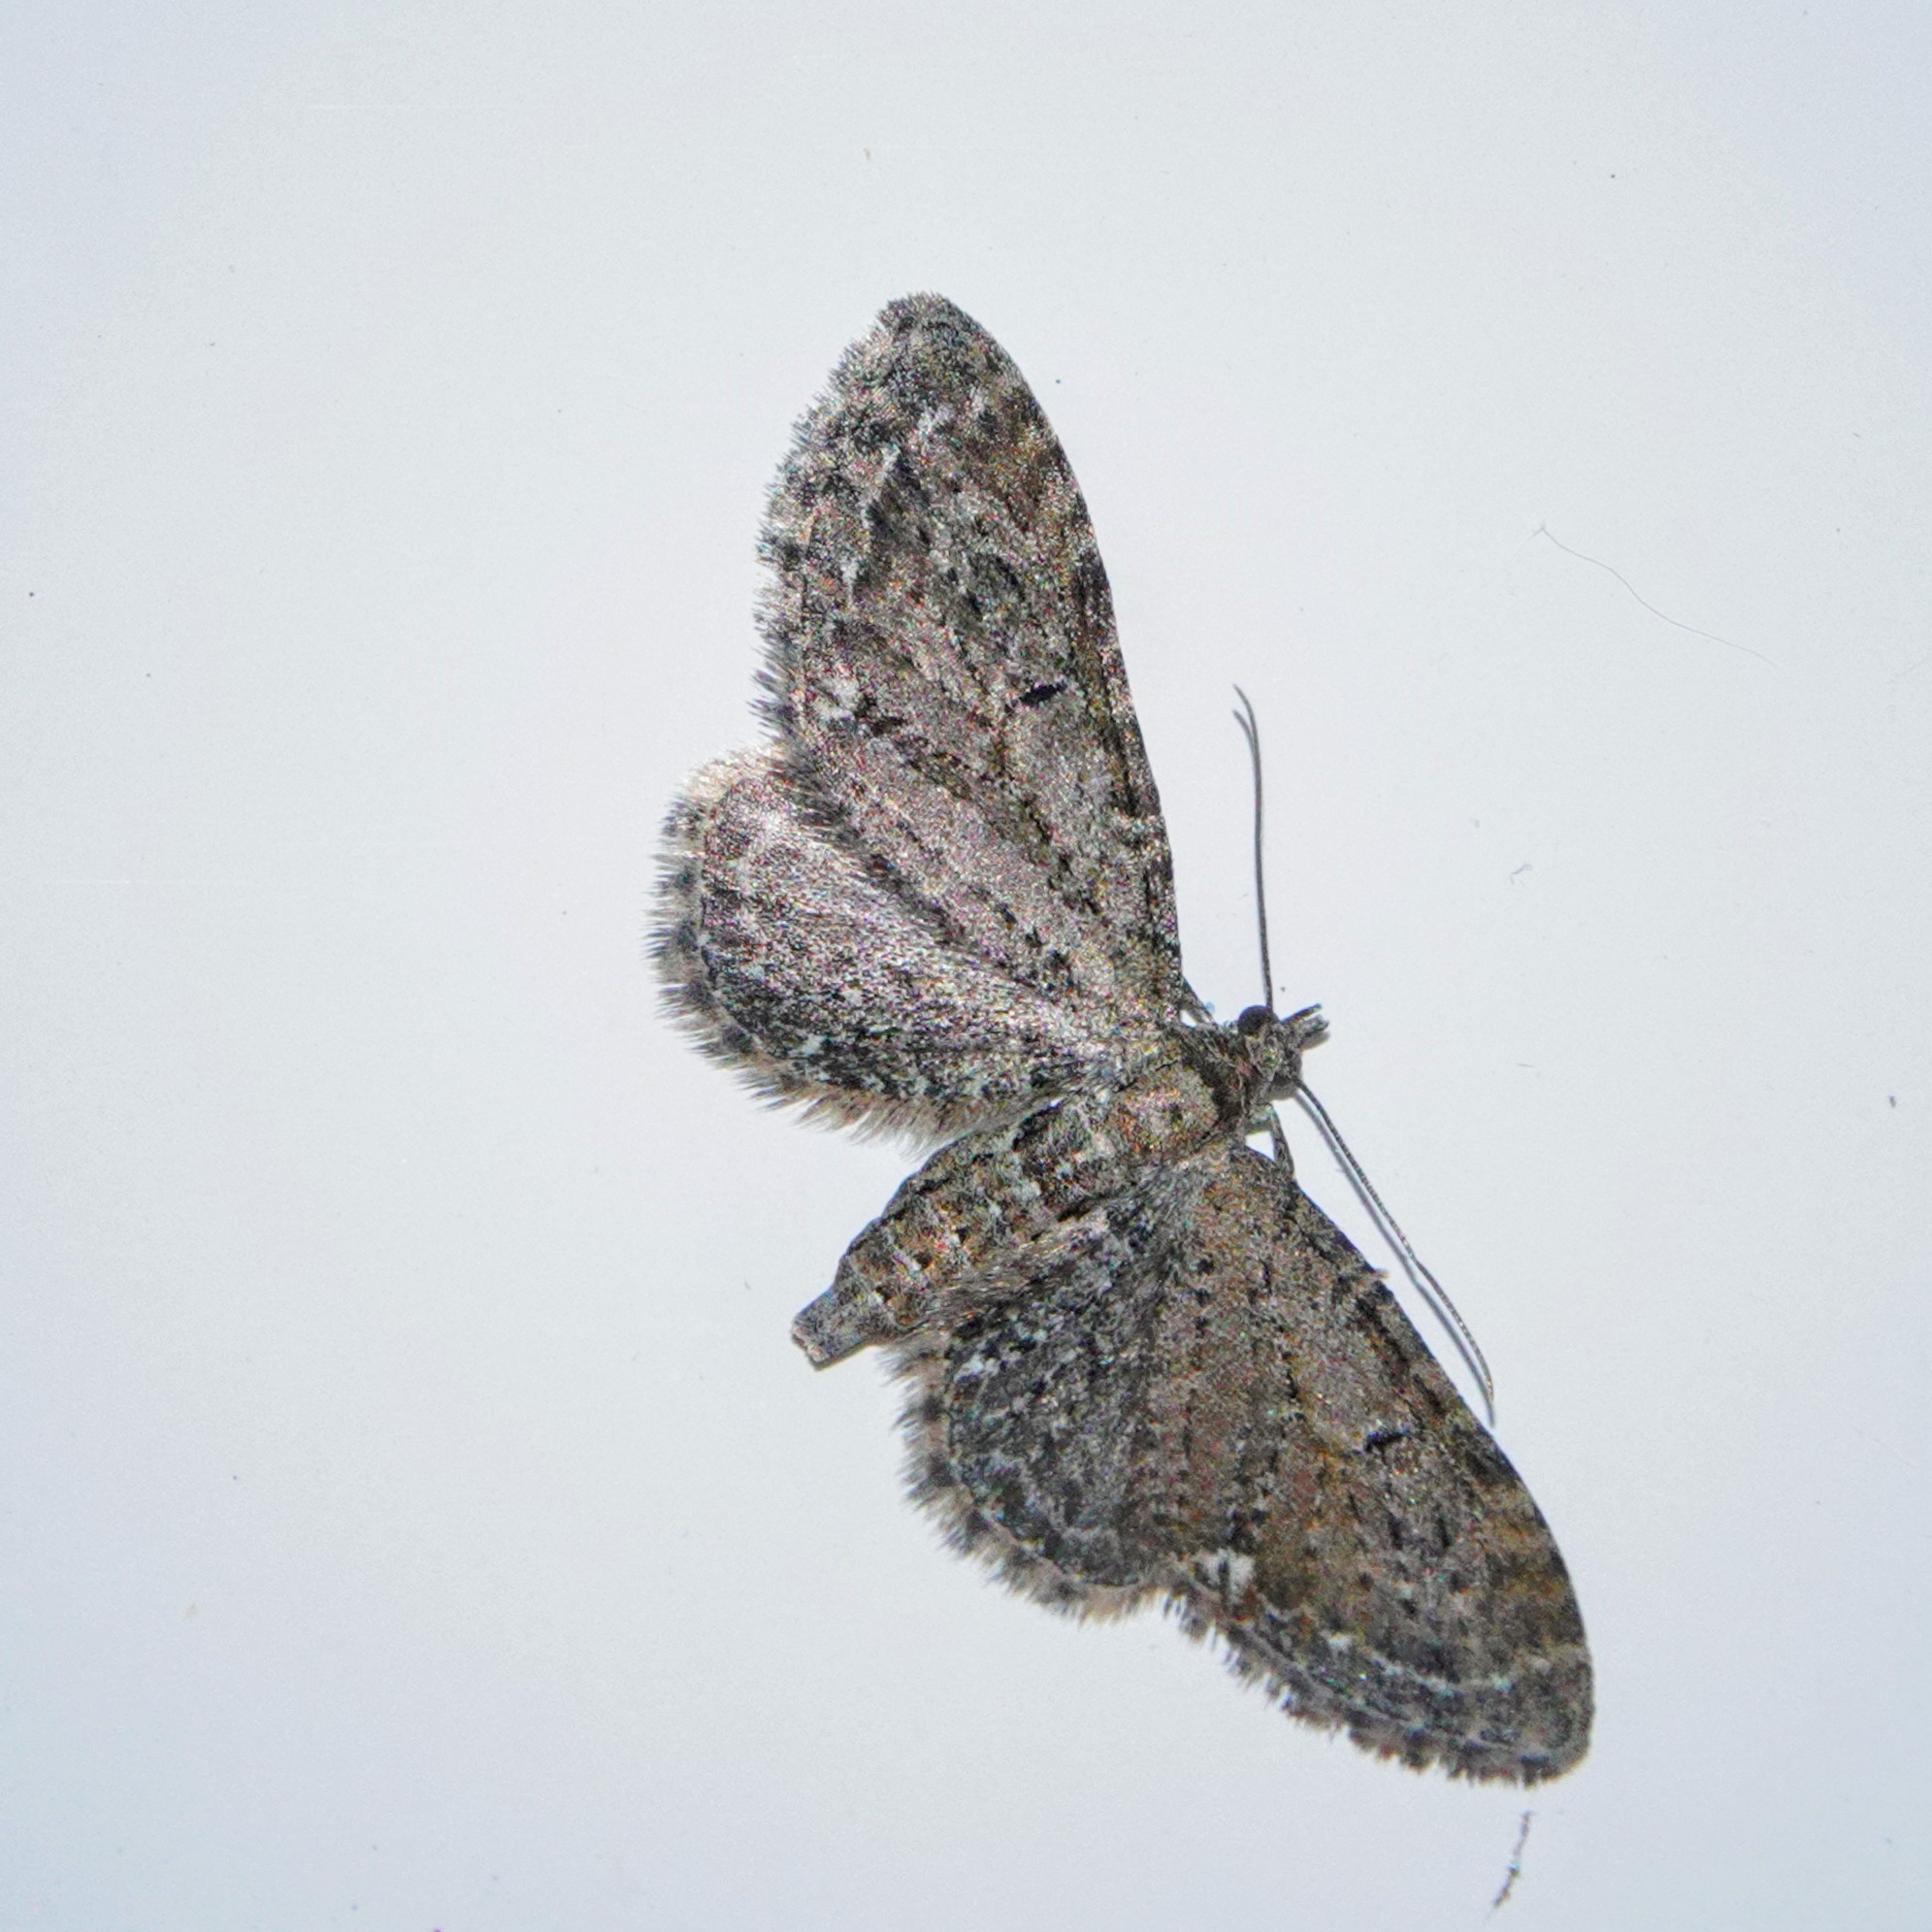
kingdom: Animalia
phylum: Arthropoda
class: Insecta
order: Lepidoptera
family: Geometridae
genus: Eupithecia
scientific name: Eupithecia vulgata
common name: Common pug
